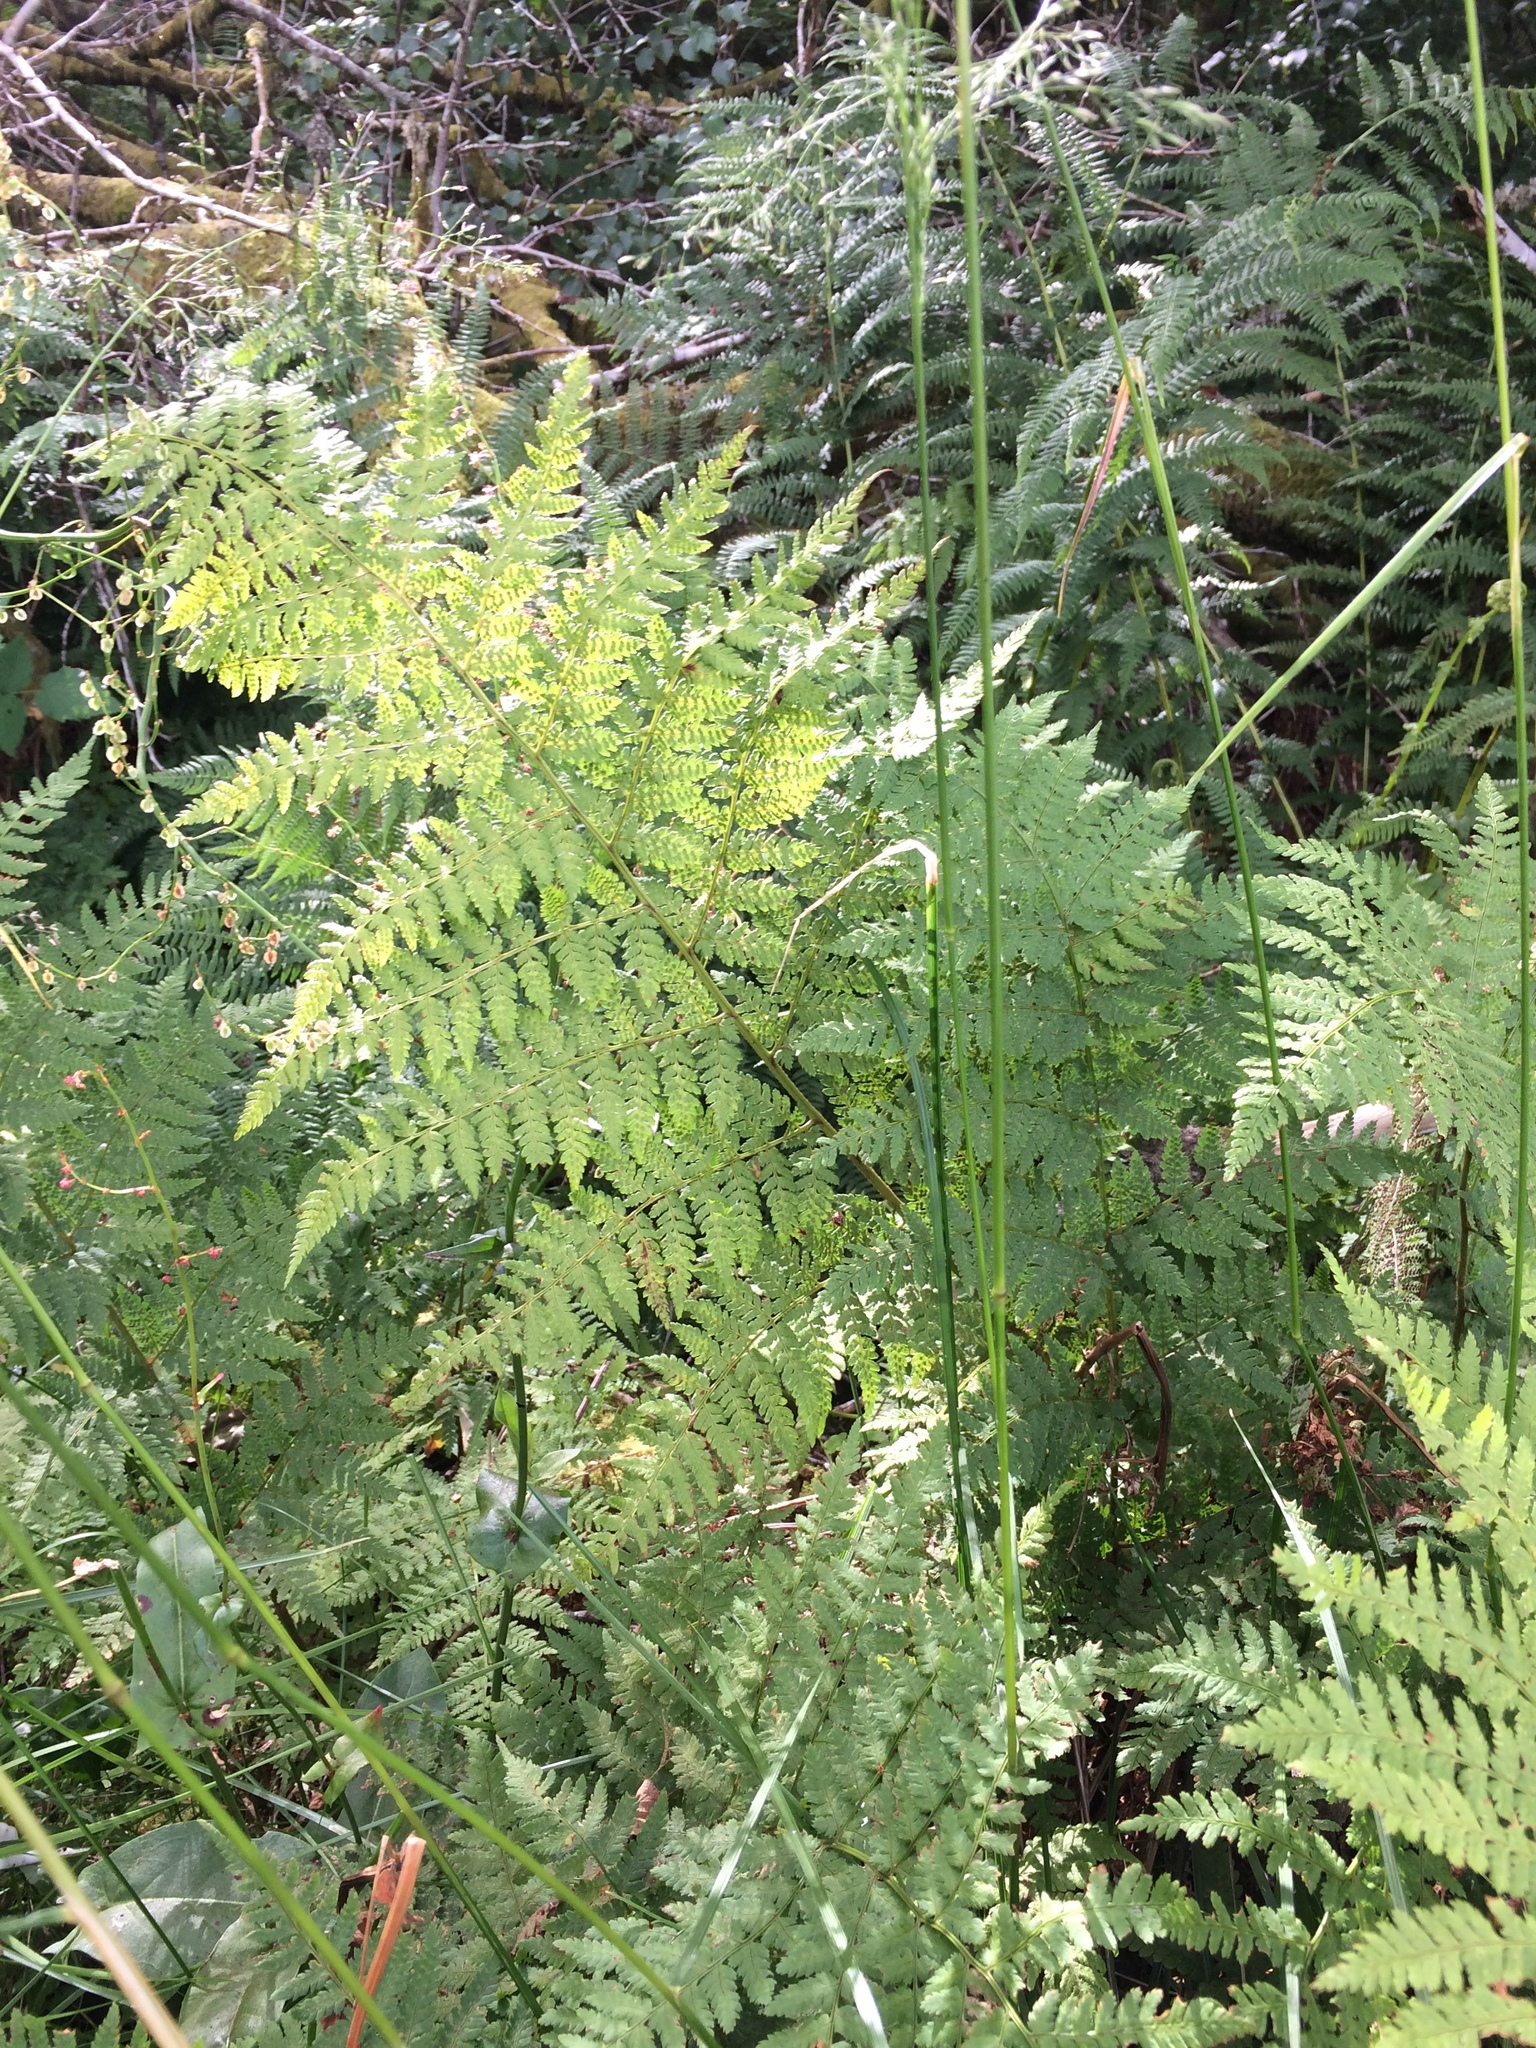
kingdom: Plantae
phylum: Tracheophyta
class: Polypodiopsida
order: Polypodiales
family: Dryopteridaceae
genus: Dryopteris
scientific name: Dryopteris expansa
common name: Northern buckler fern
